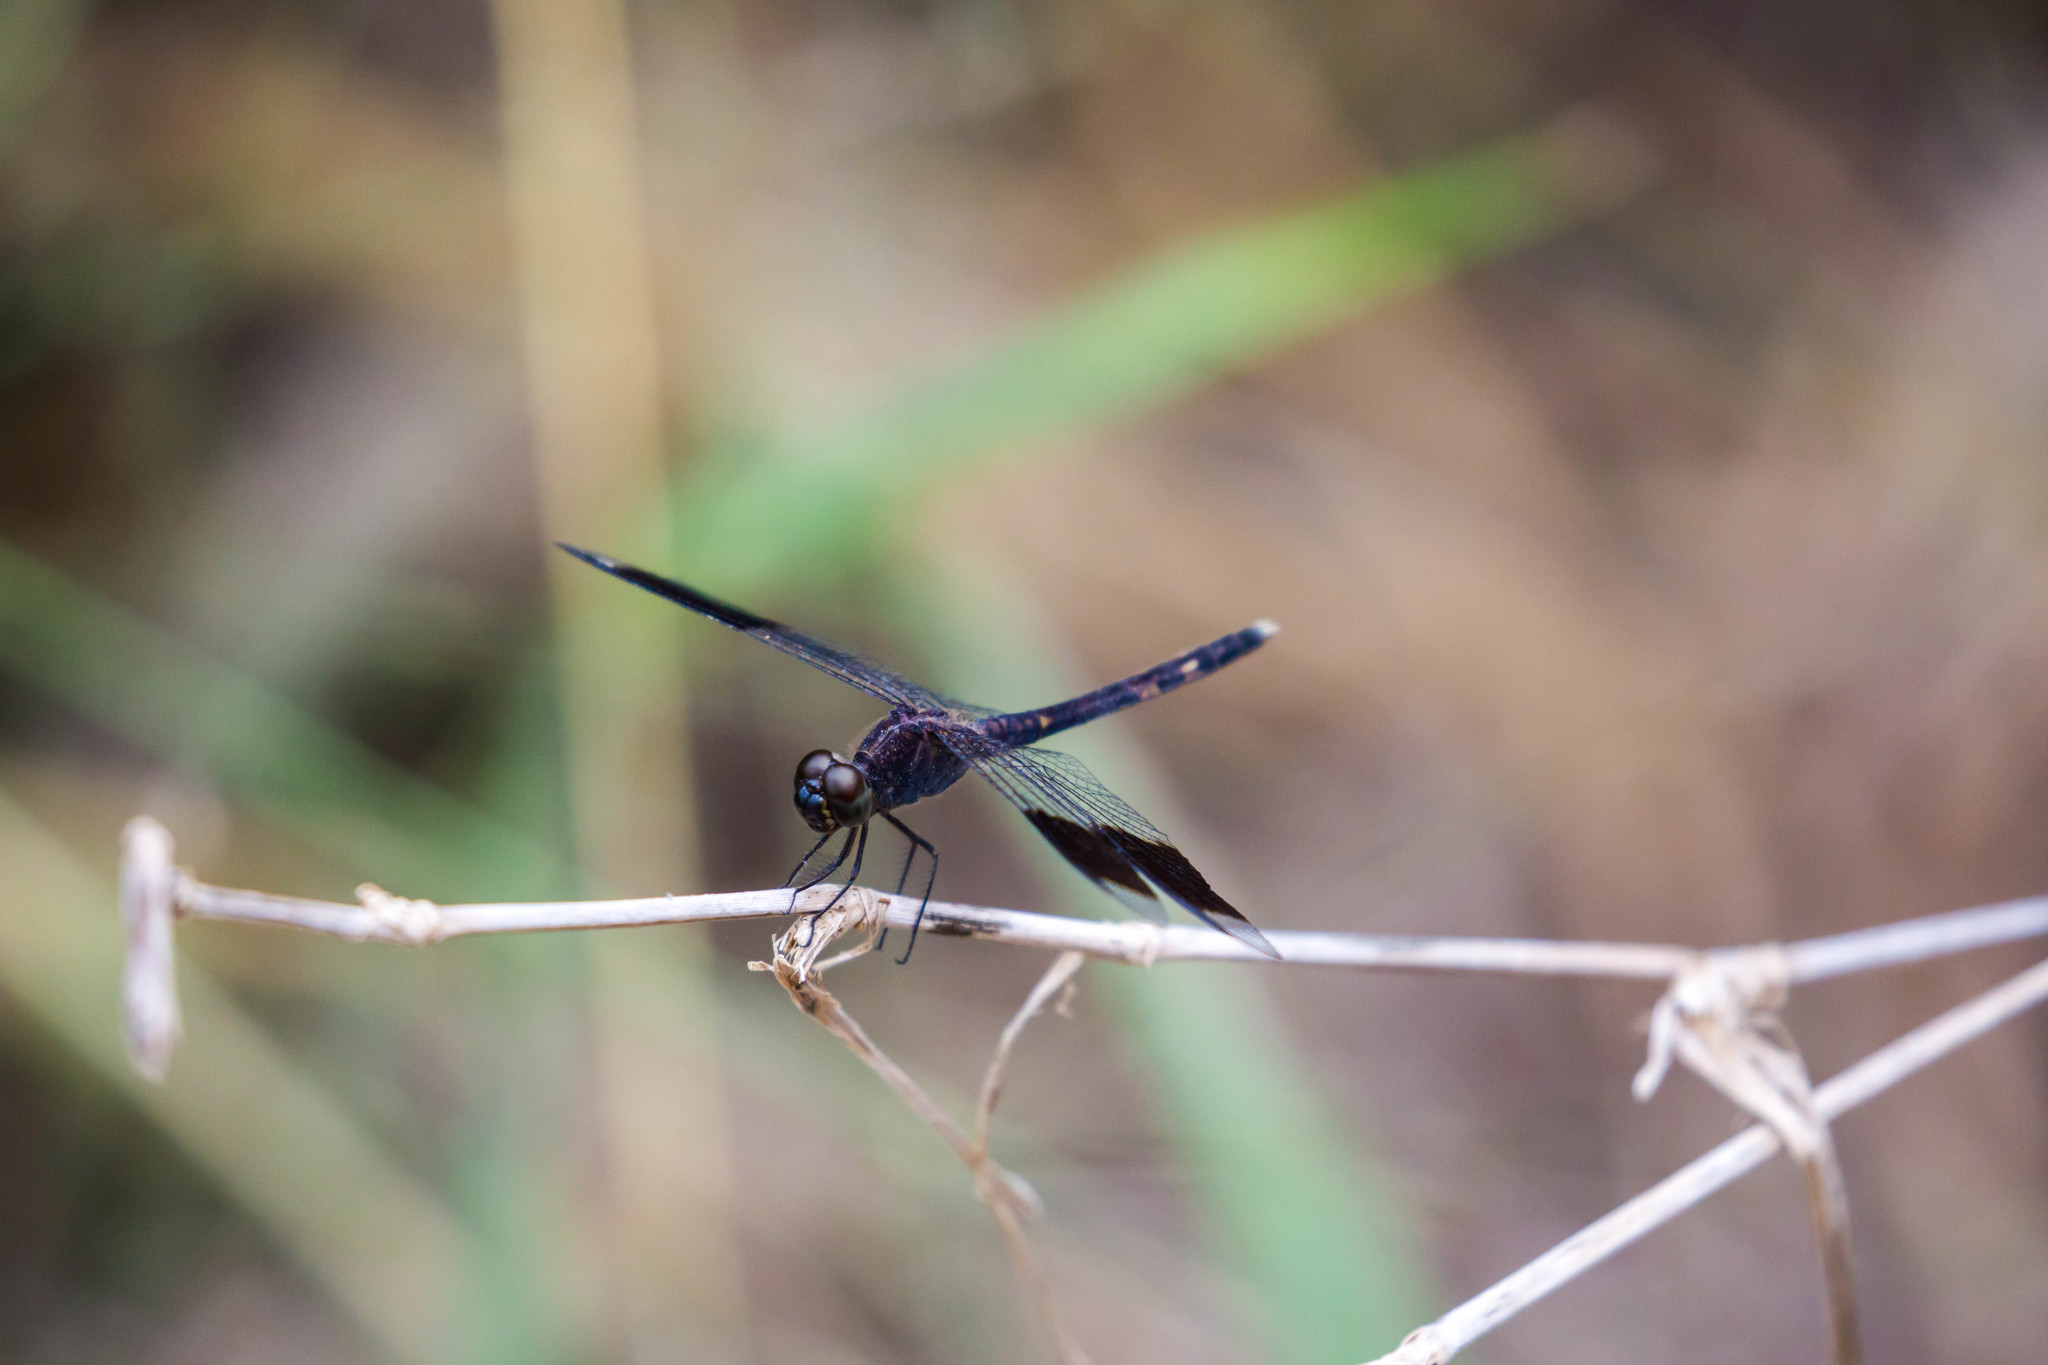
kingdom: Animalia
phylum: Arthropoda
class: Insecta
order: Odonata
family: Libellulidae
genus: Erythrodiplax
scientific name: Erythrodiplax umbrata
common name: Band-winged dragonlet
